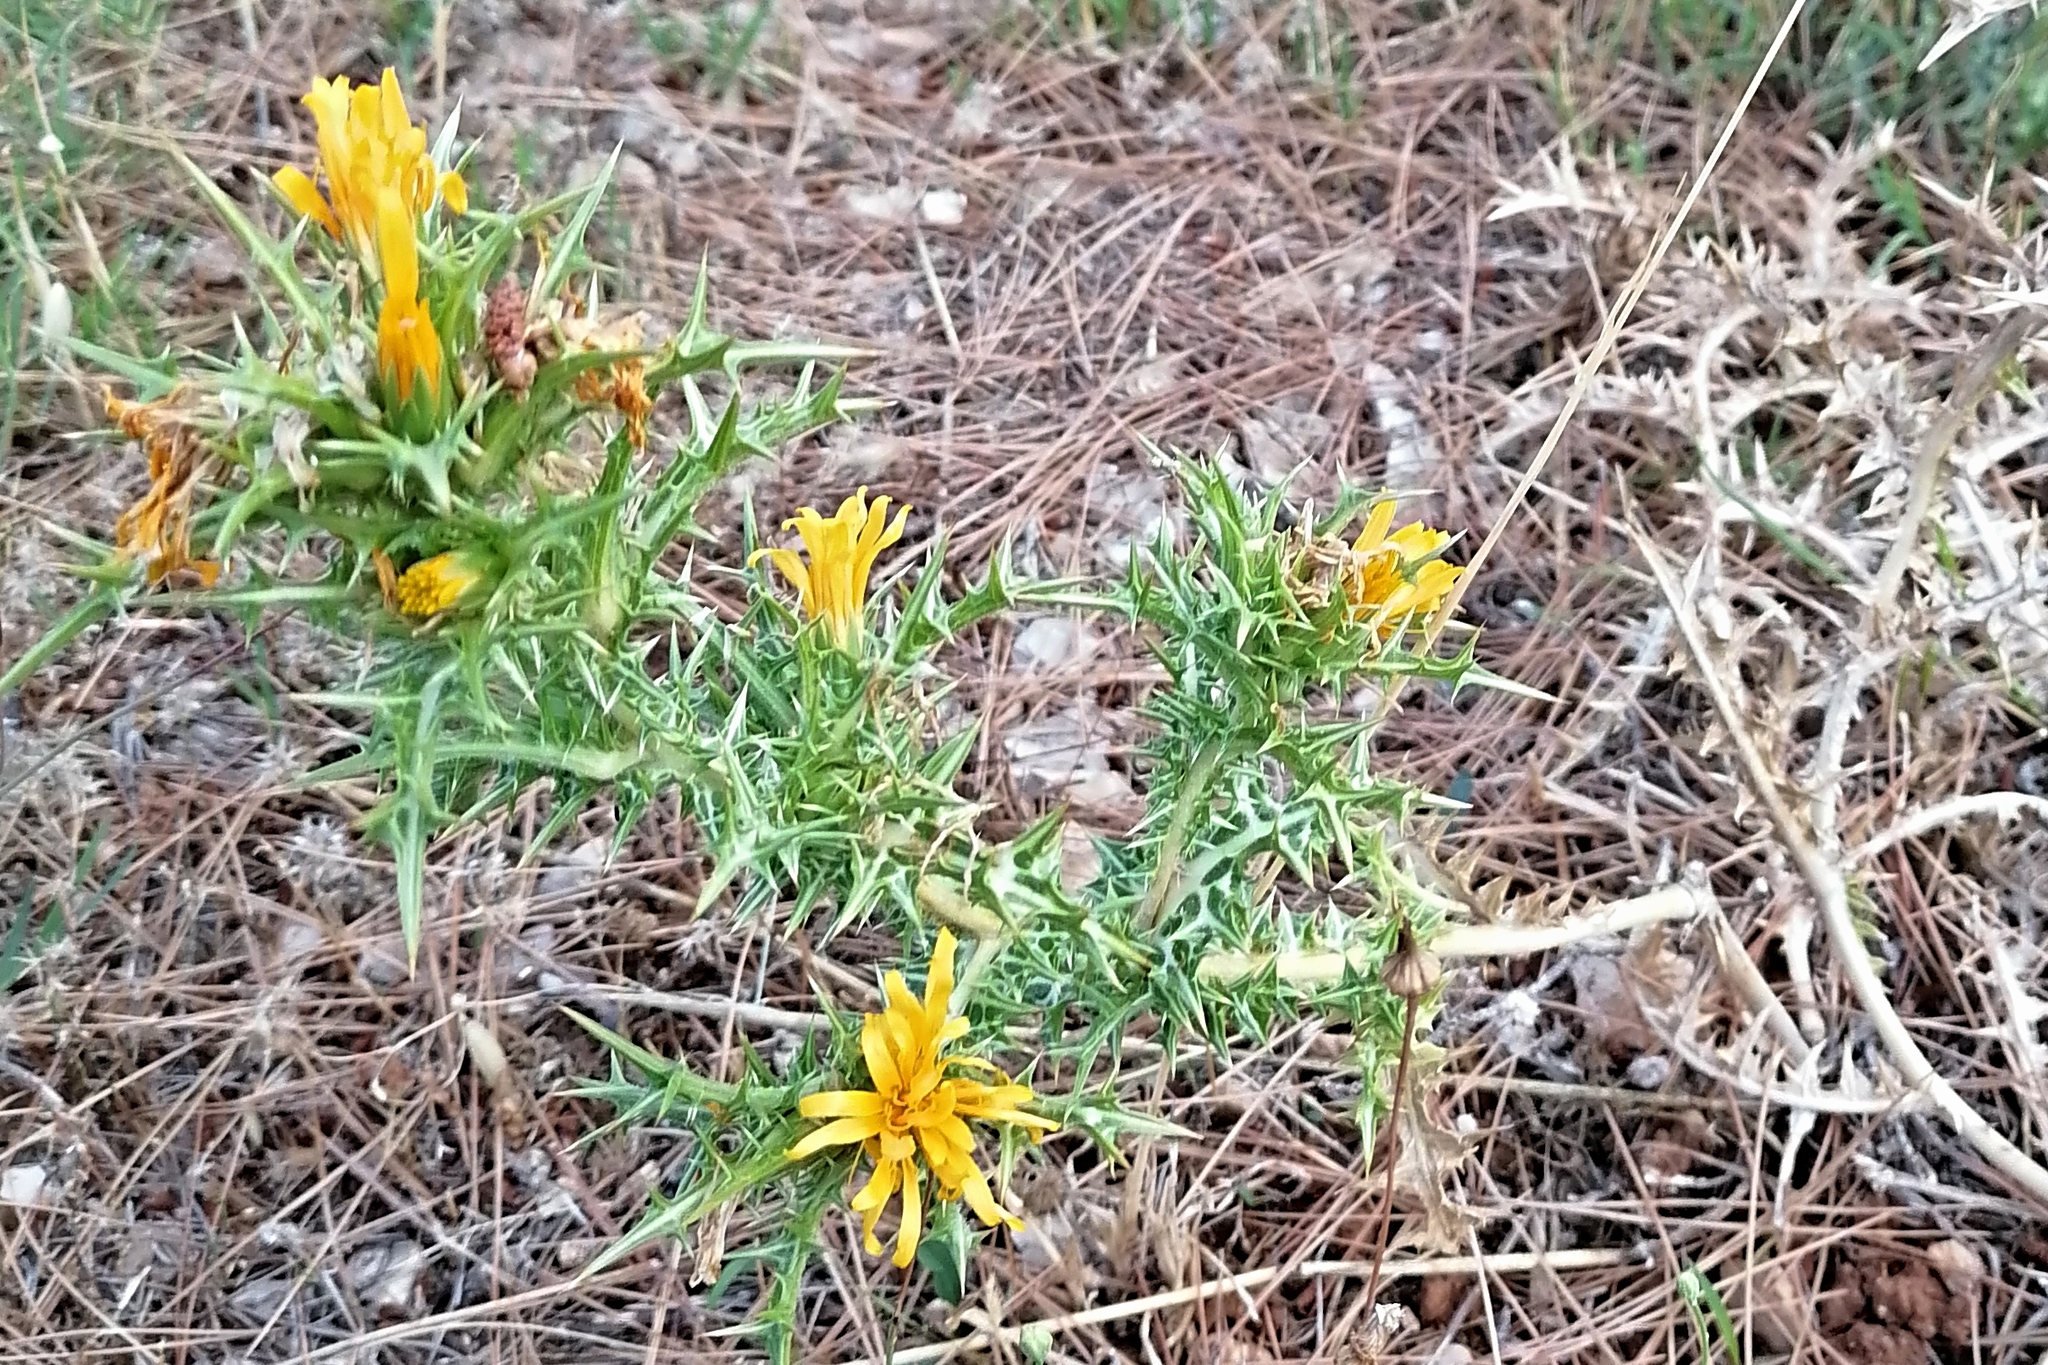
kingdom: Plantae
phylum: Tracheophyta
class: Magnoliopsida
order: Asterales
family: Asteraceae
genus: Scolymus
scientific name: Scolymus hispanicus
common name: Golden thistle
